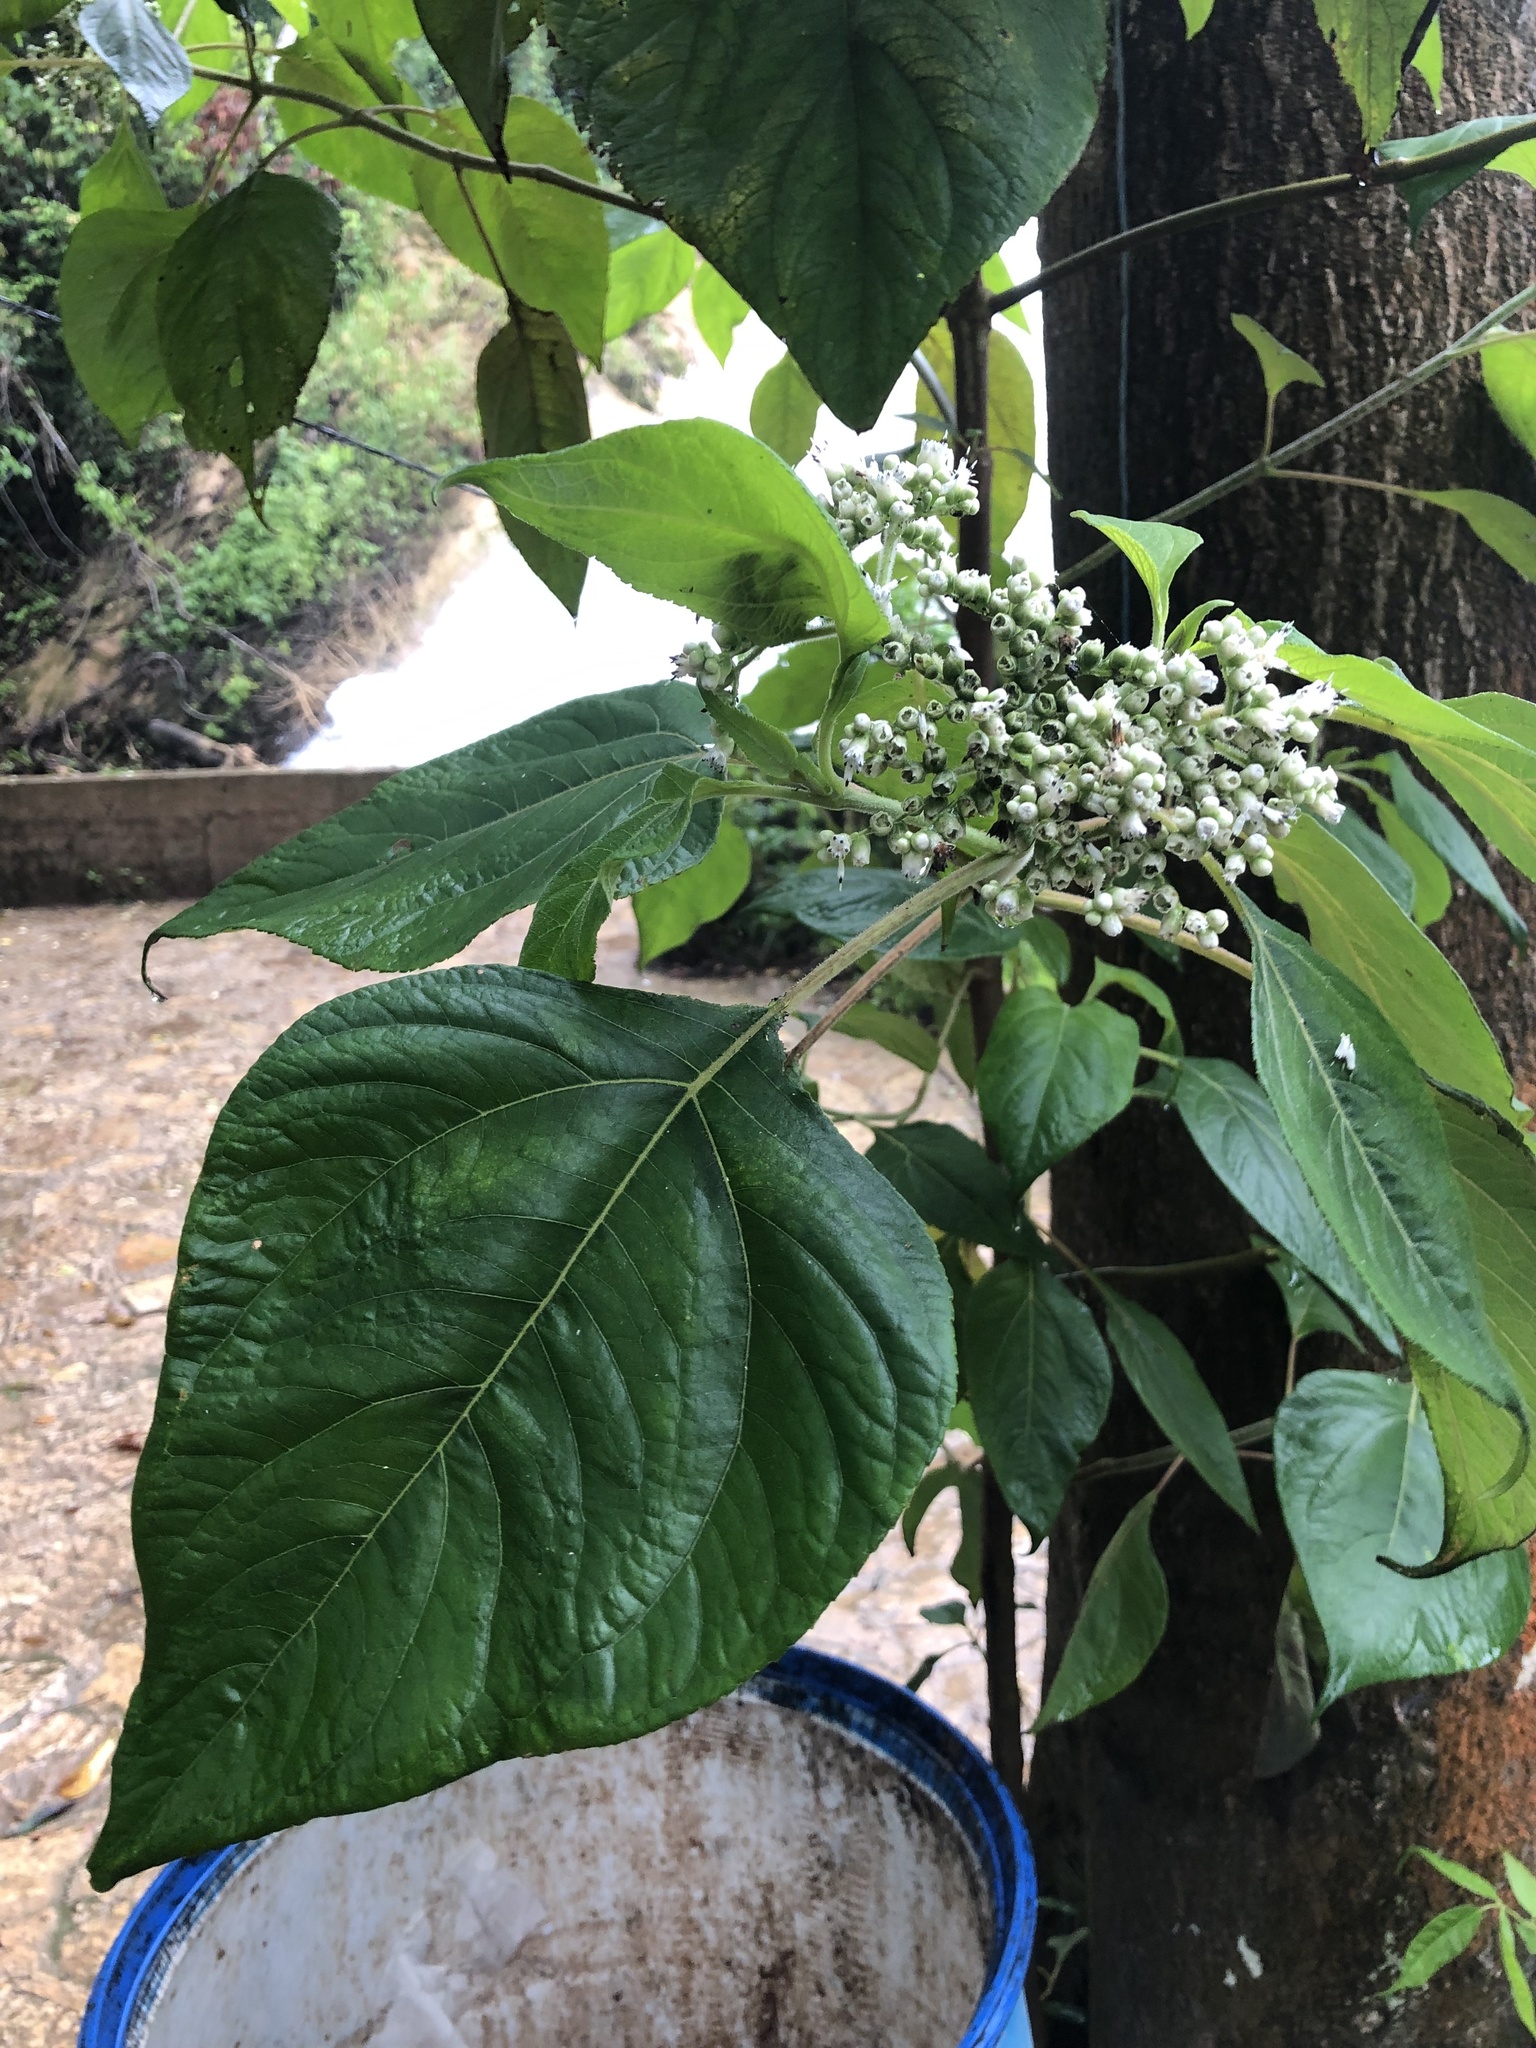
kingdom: Plantae
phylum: Tracheophyta
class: Magnoliopsida
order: Asterales
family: Asteraceae
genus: Clibadium
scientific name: Clibadium arboreum
